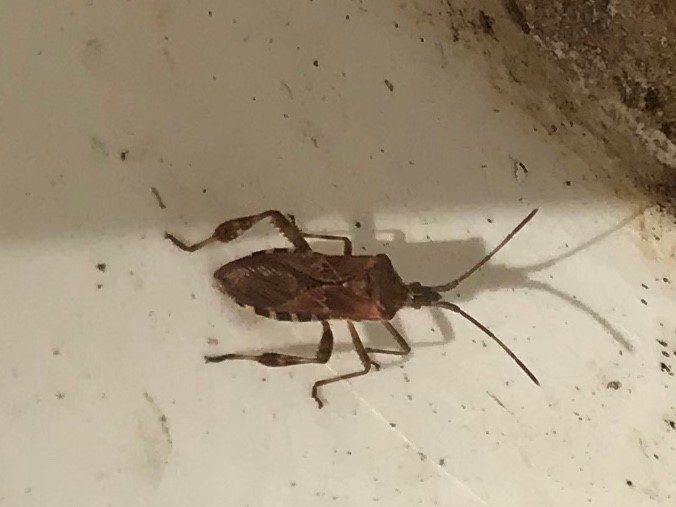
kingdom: Animalia
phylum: Arthropoda
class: Insecta
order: Hemiptera
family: Coreidae
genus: Leptoglossus
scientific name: Leptoglossus occidentalis
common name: Western conifer-seed bug
